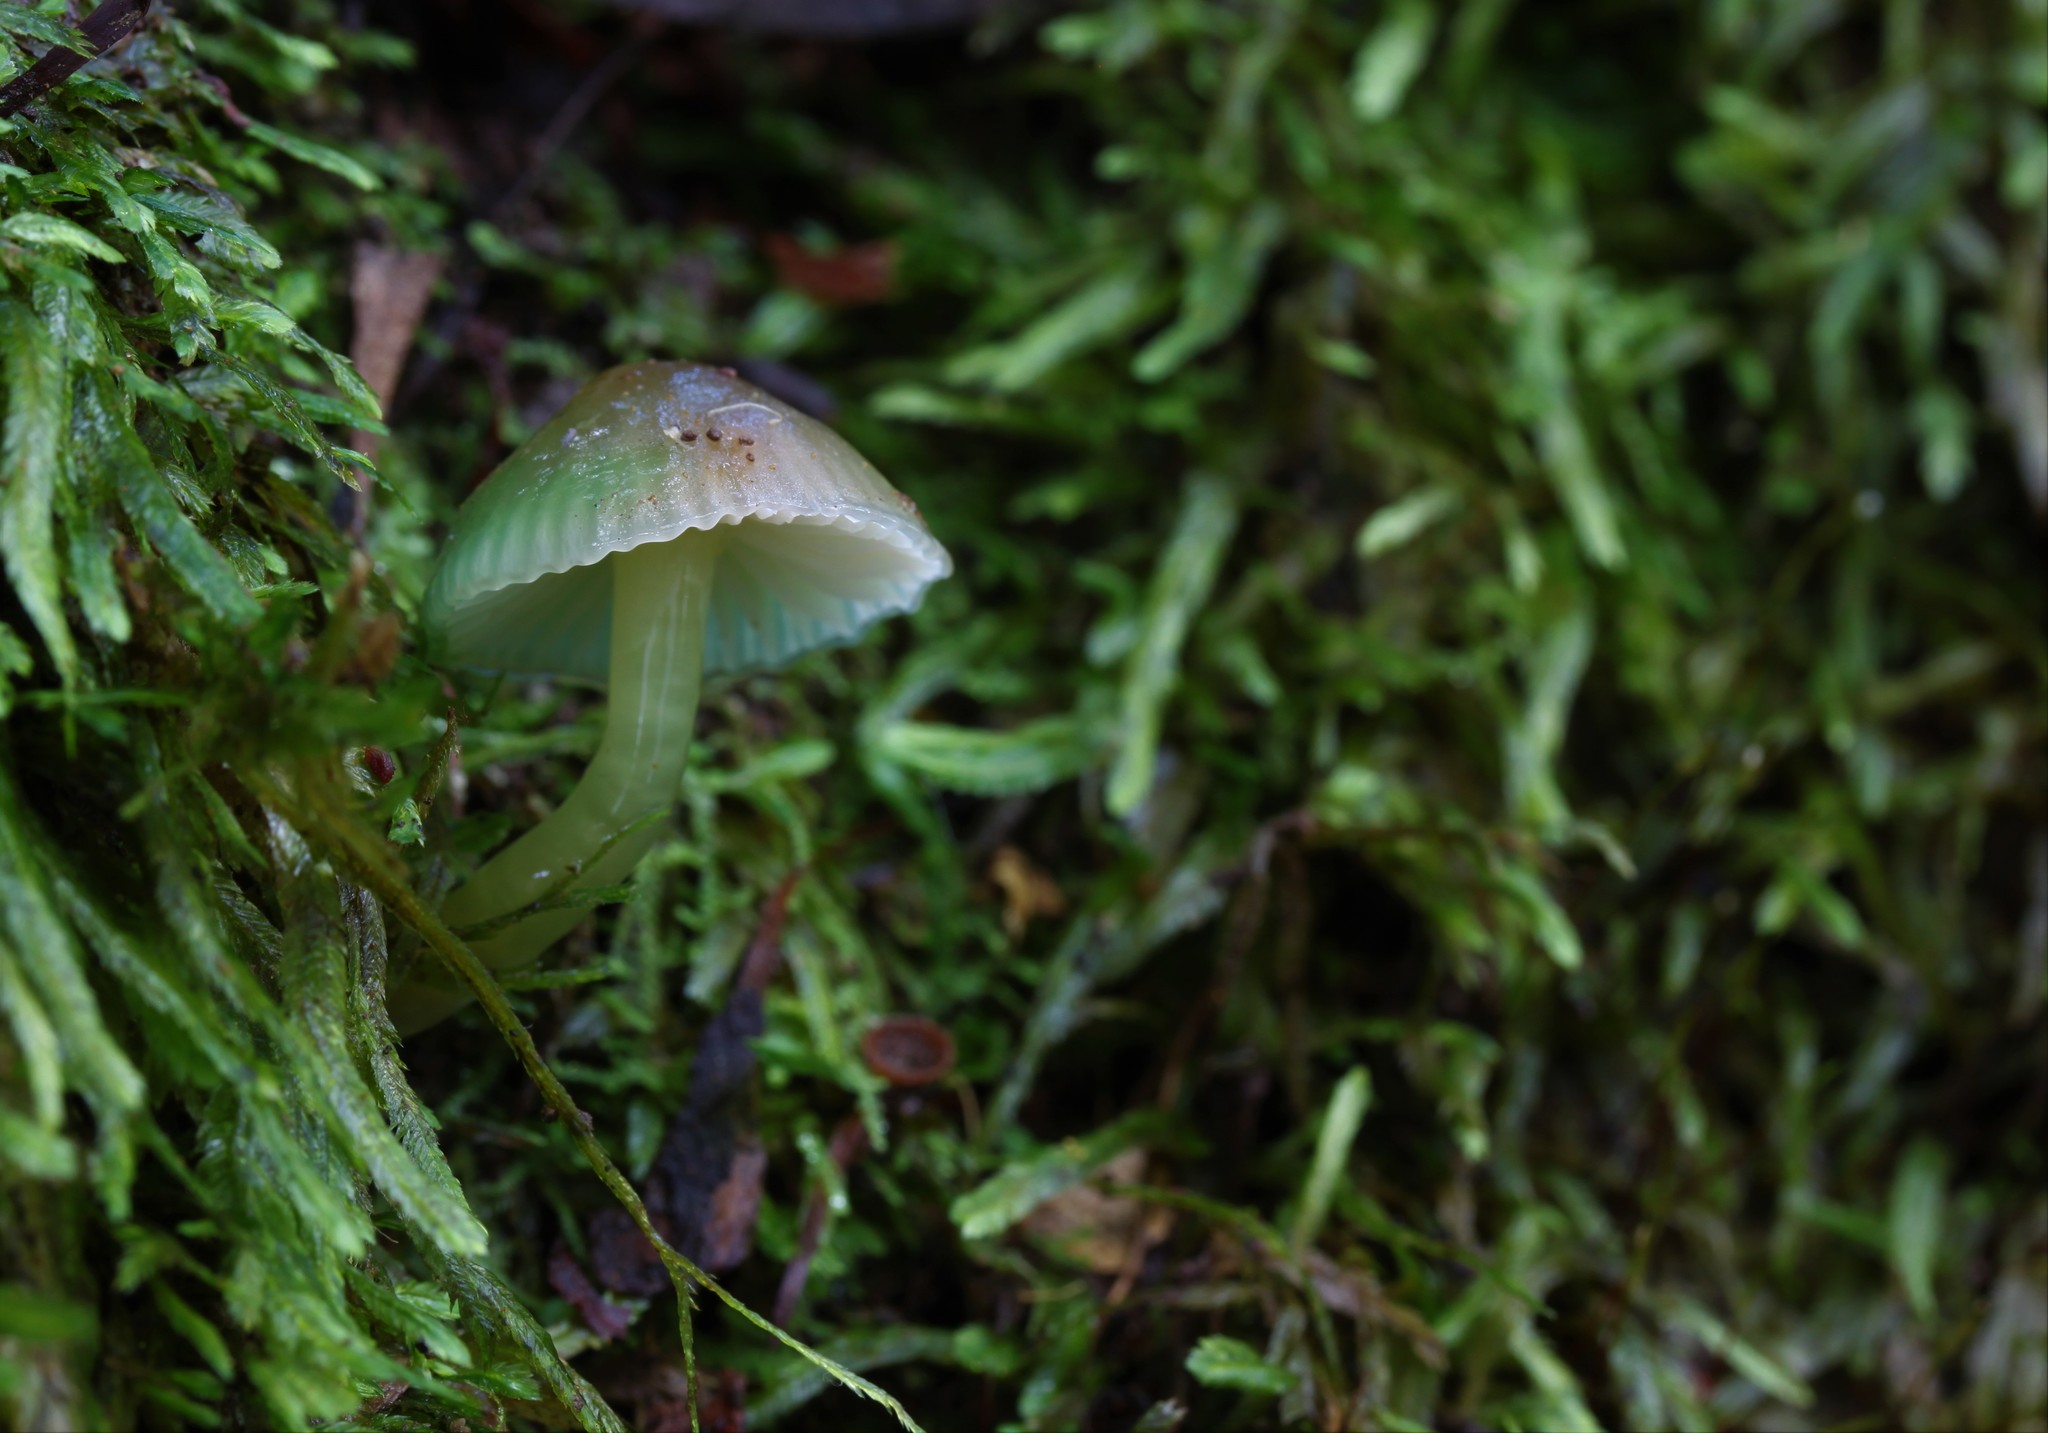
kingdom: Fungi
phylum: Basidiomycota
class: Agaricomycetes
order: Agaricales
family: Hygrophoraceae
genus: Gliophorus
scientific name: Gliophorus viridis
